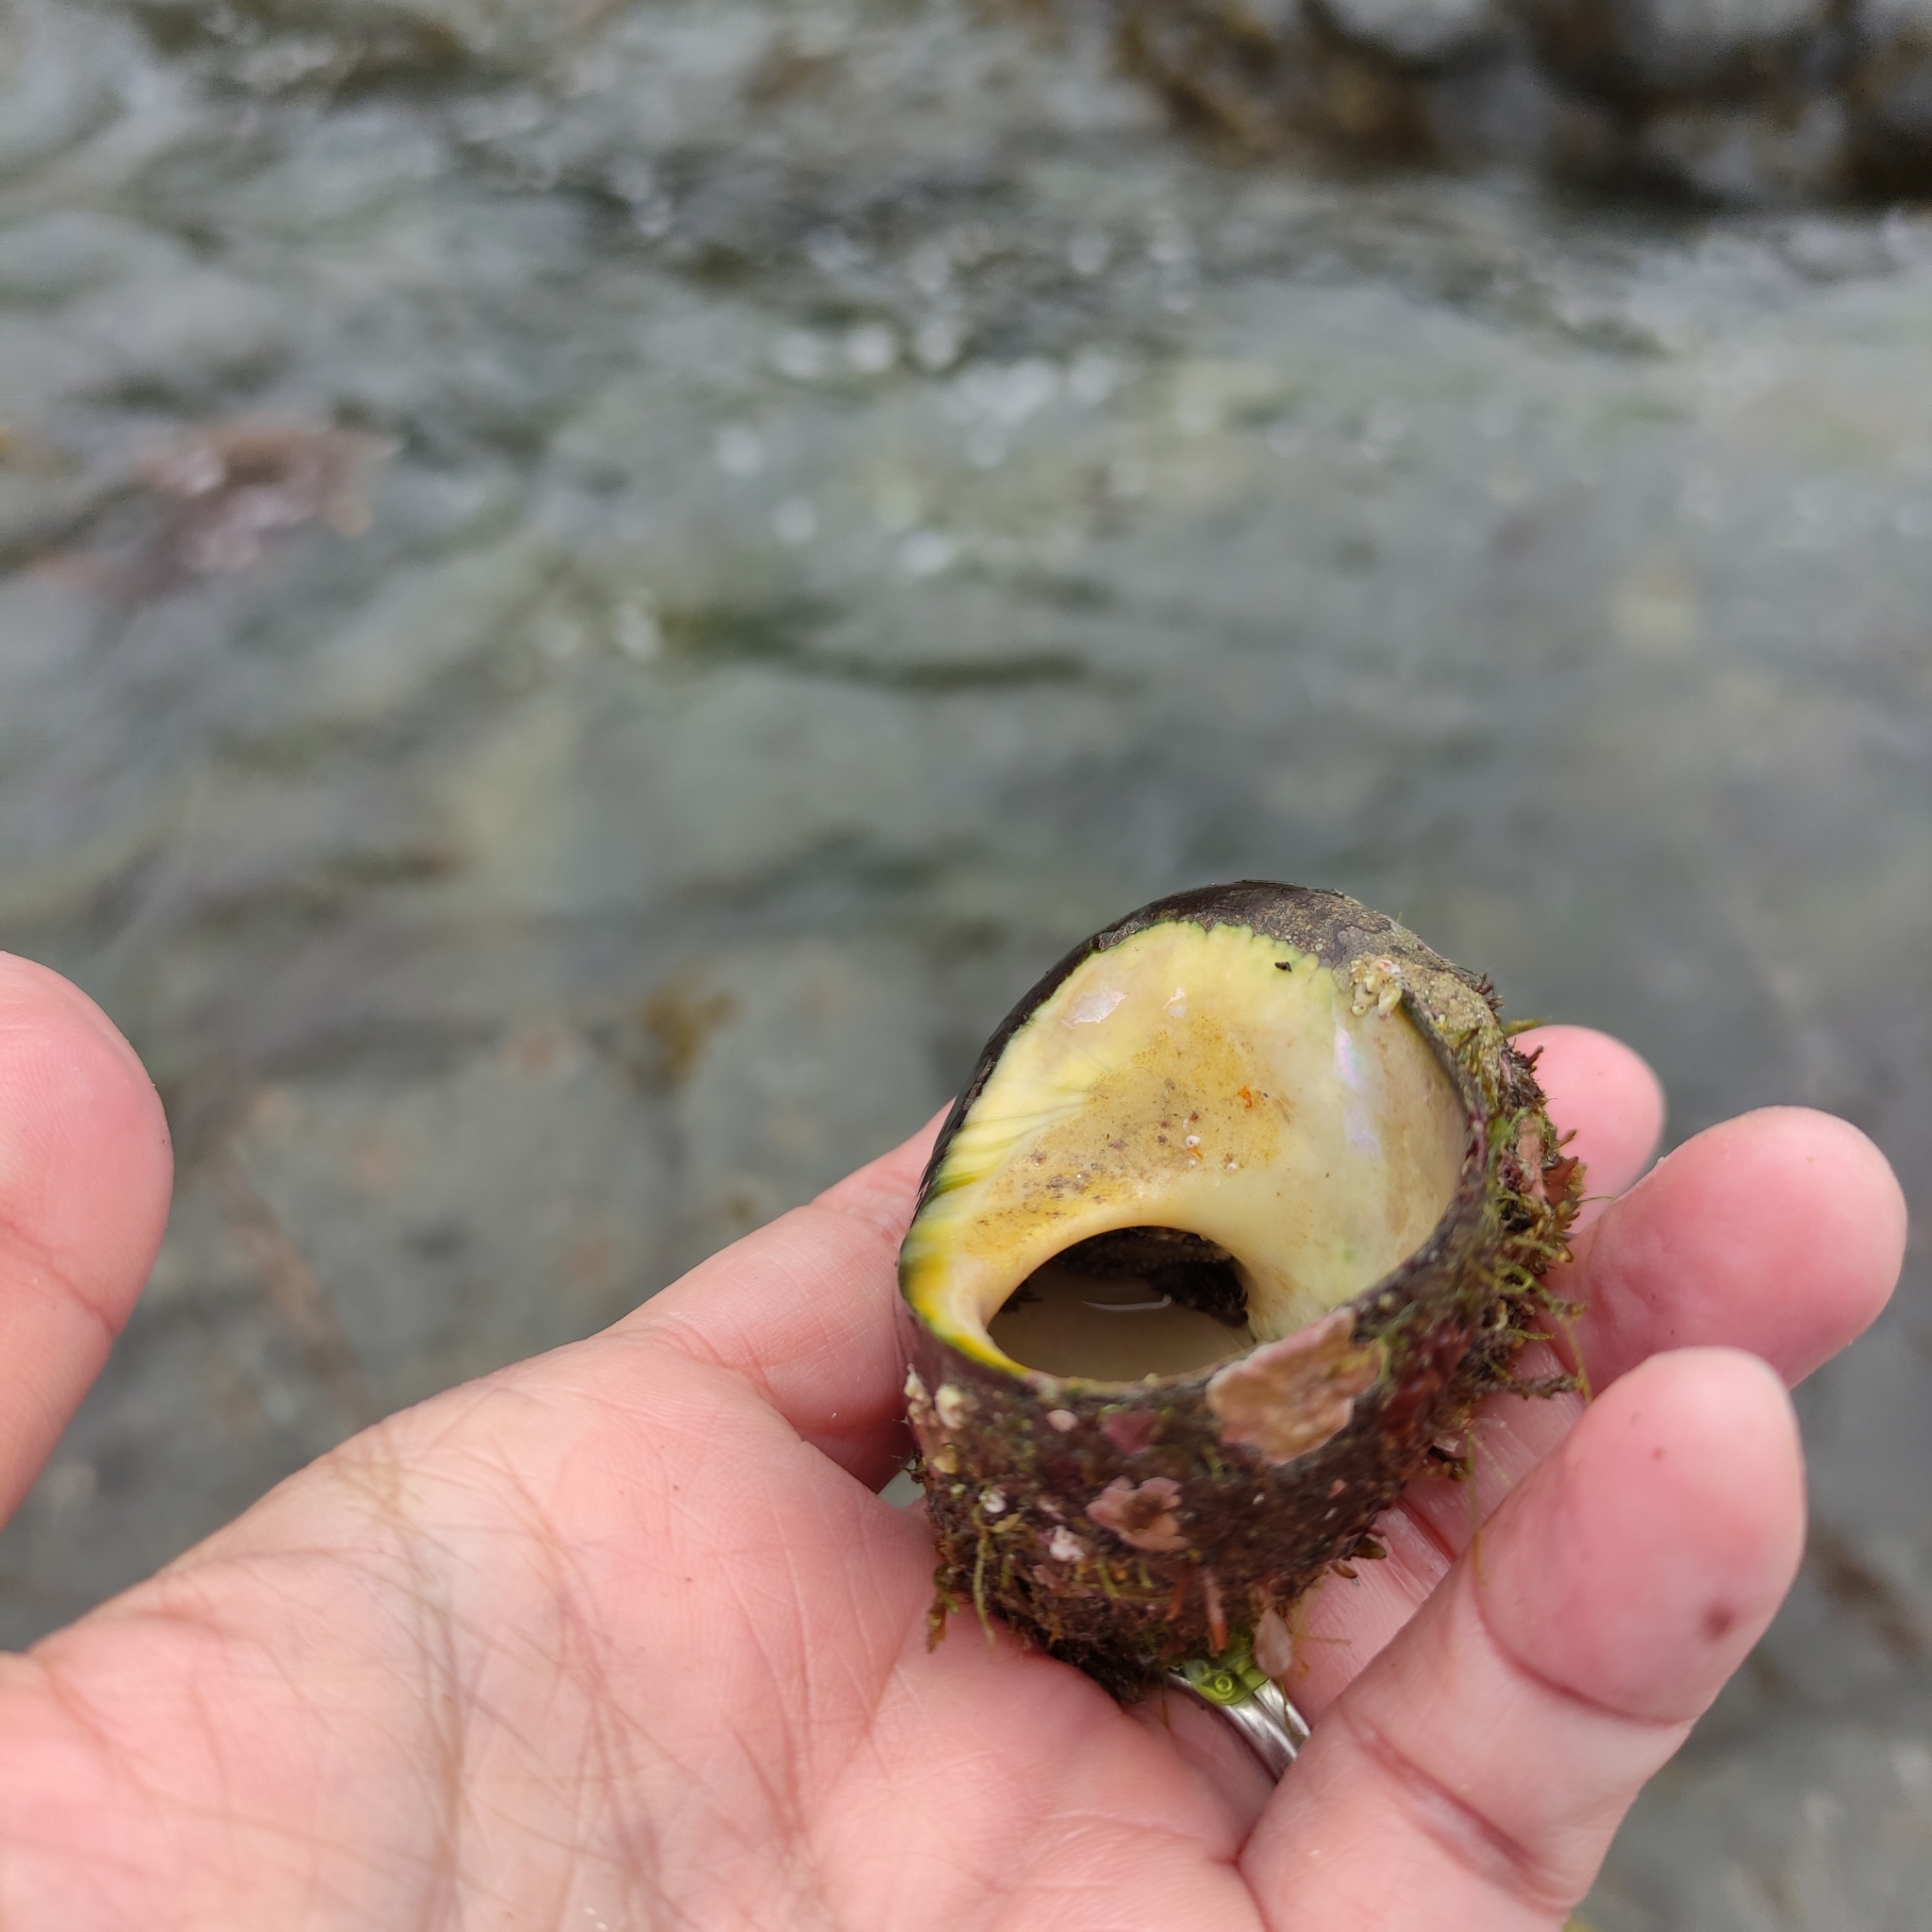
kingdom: Animalia
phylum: Mollusca
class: Gastropoda
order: Trochida
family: Turbinidae
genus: Lunella
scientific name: Lunella smaragda
